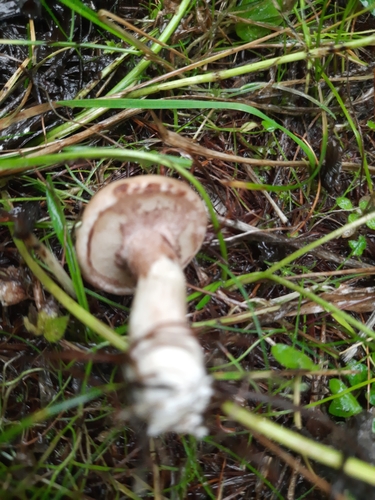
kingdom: Fungi
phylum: Basidiomycota
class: Agaricomycetes
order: Boletales
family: Suillaceae
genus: Suillus
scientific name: Suillus viscidus
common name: Sticky bolete
